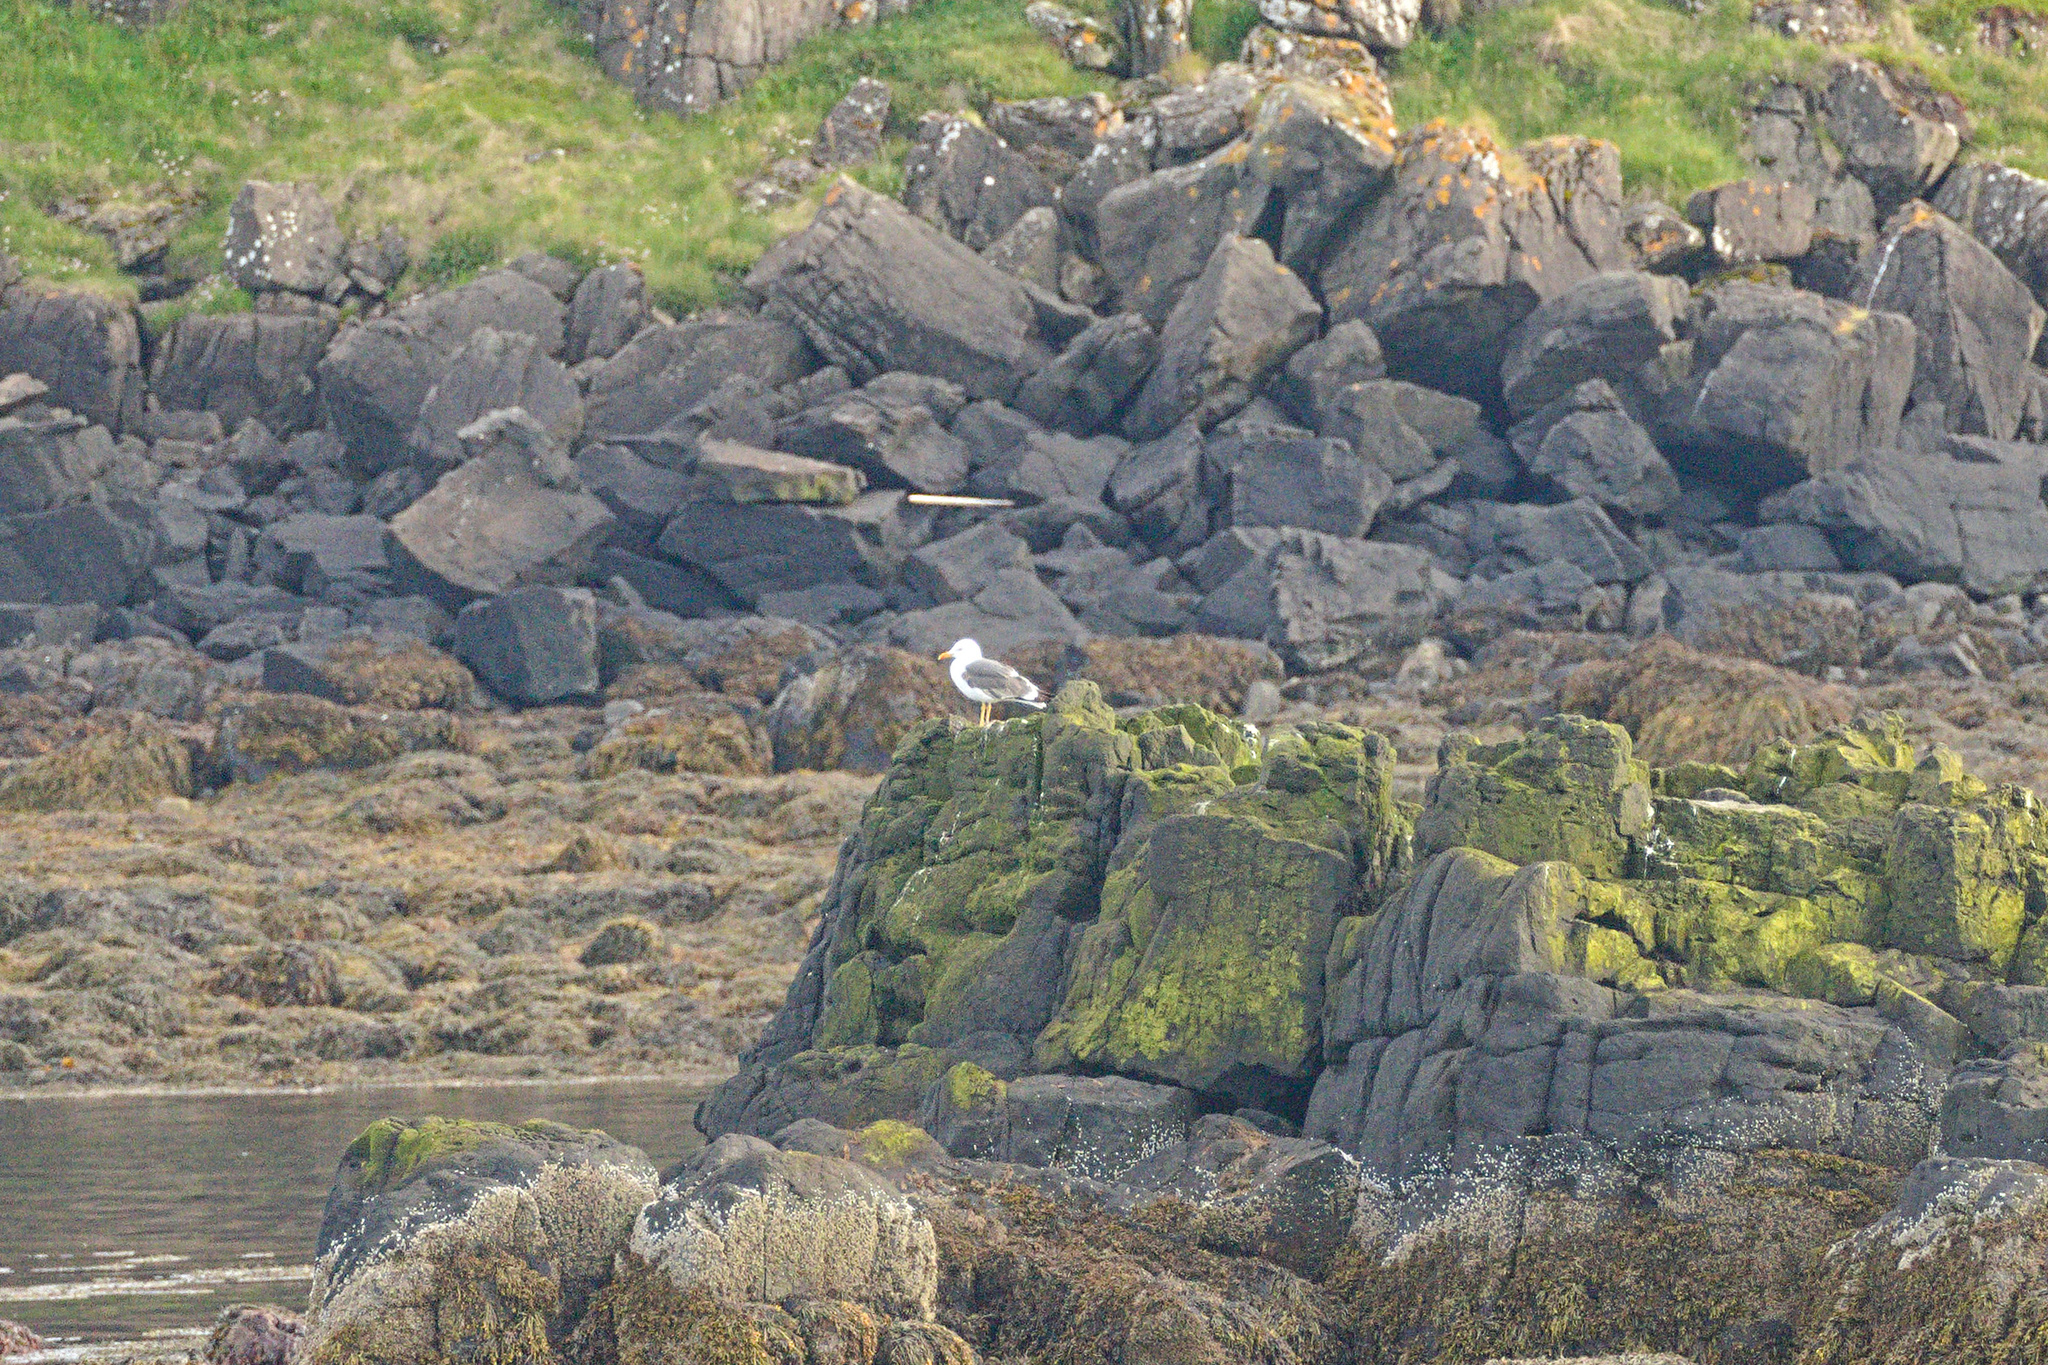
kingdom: Animalia
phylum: Chordata
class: Aves
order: Charadriiformes
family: Laridae
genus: Larus
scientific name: Larus fuscus
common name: Lesser black-backed gull
